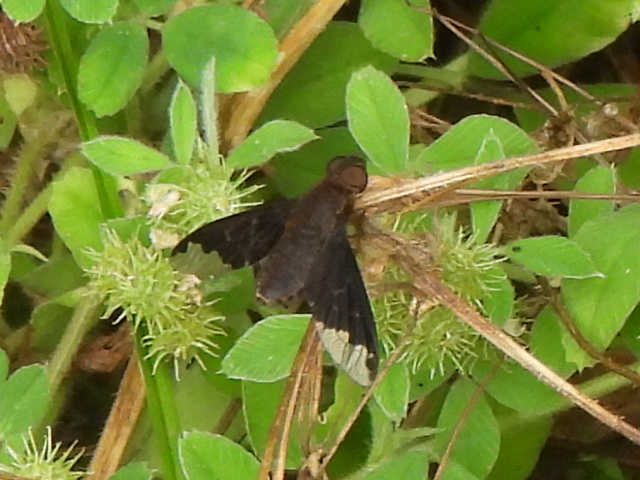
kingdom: Animalia
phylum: Arthropoda
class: Insecta
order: Diptera
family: Bombyliidae
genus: Hemipenthes
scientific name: Hemipenthes sinuosus
